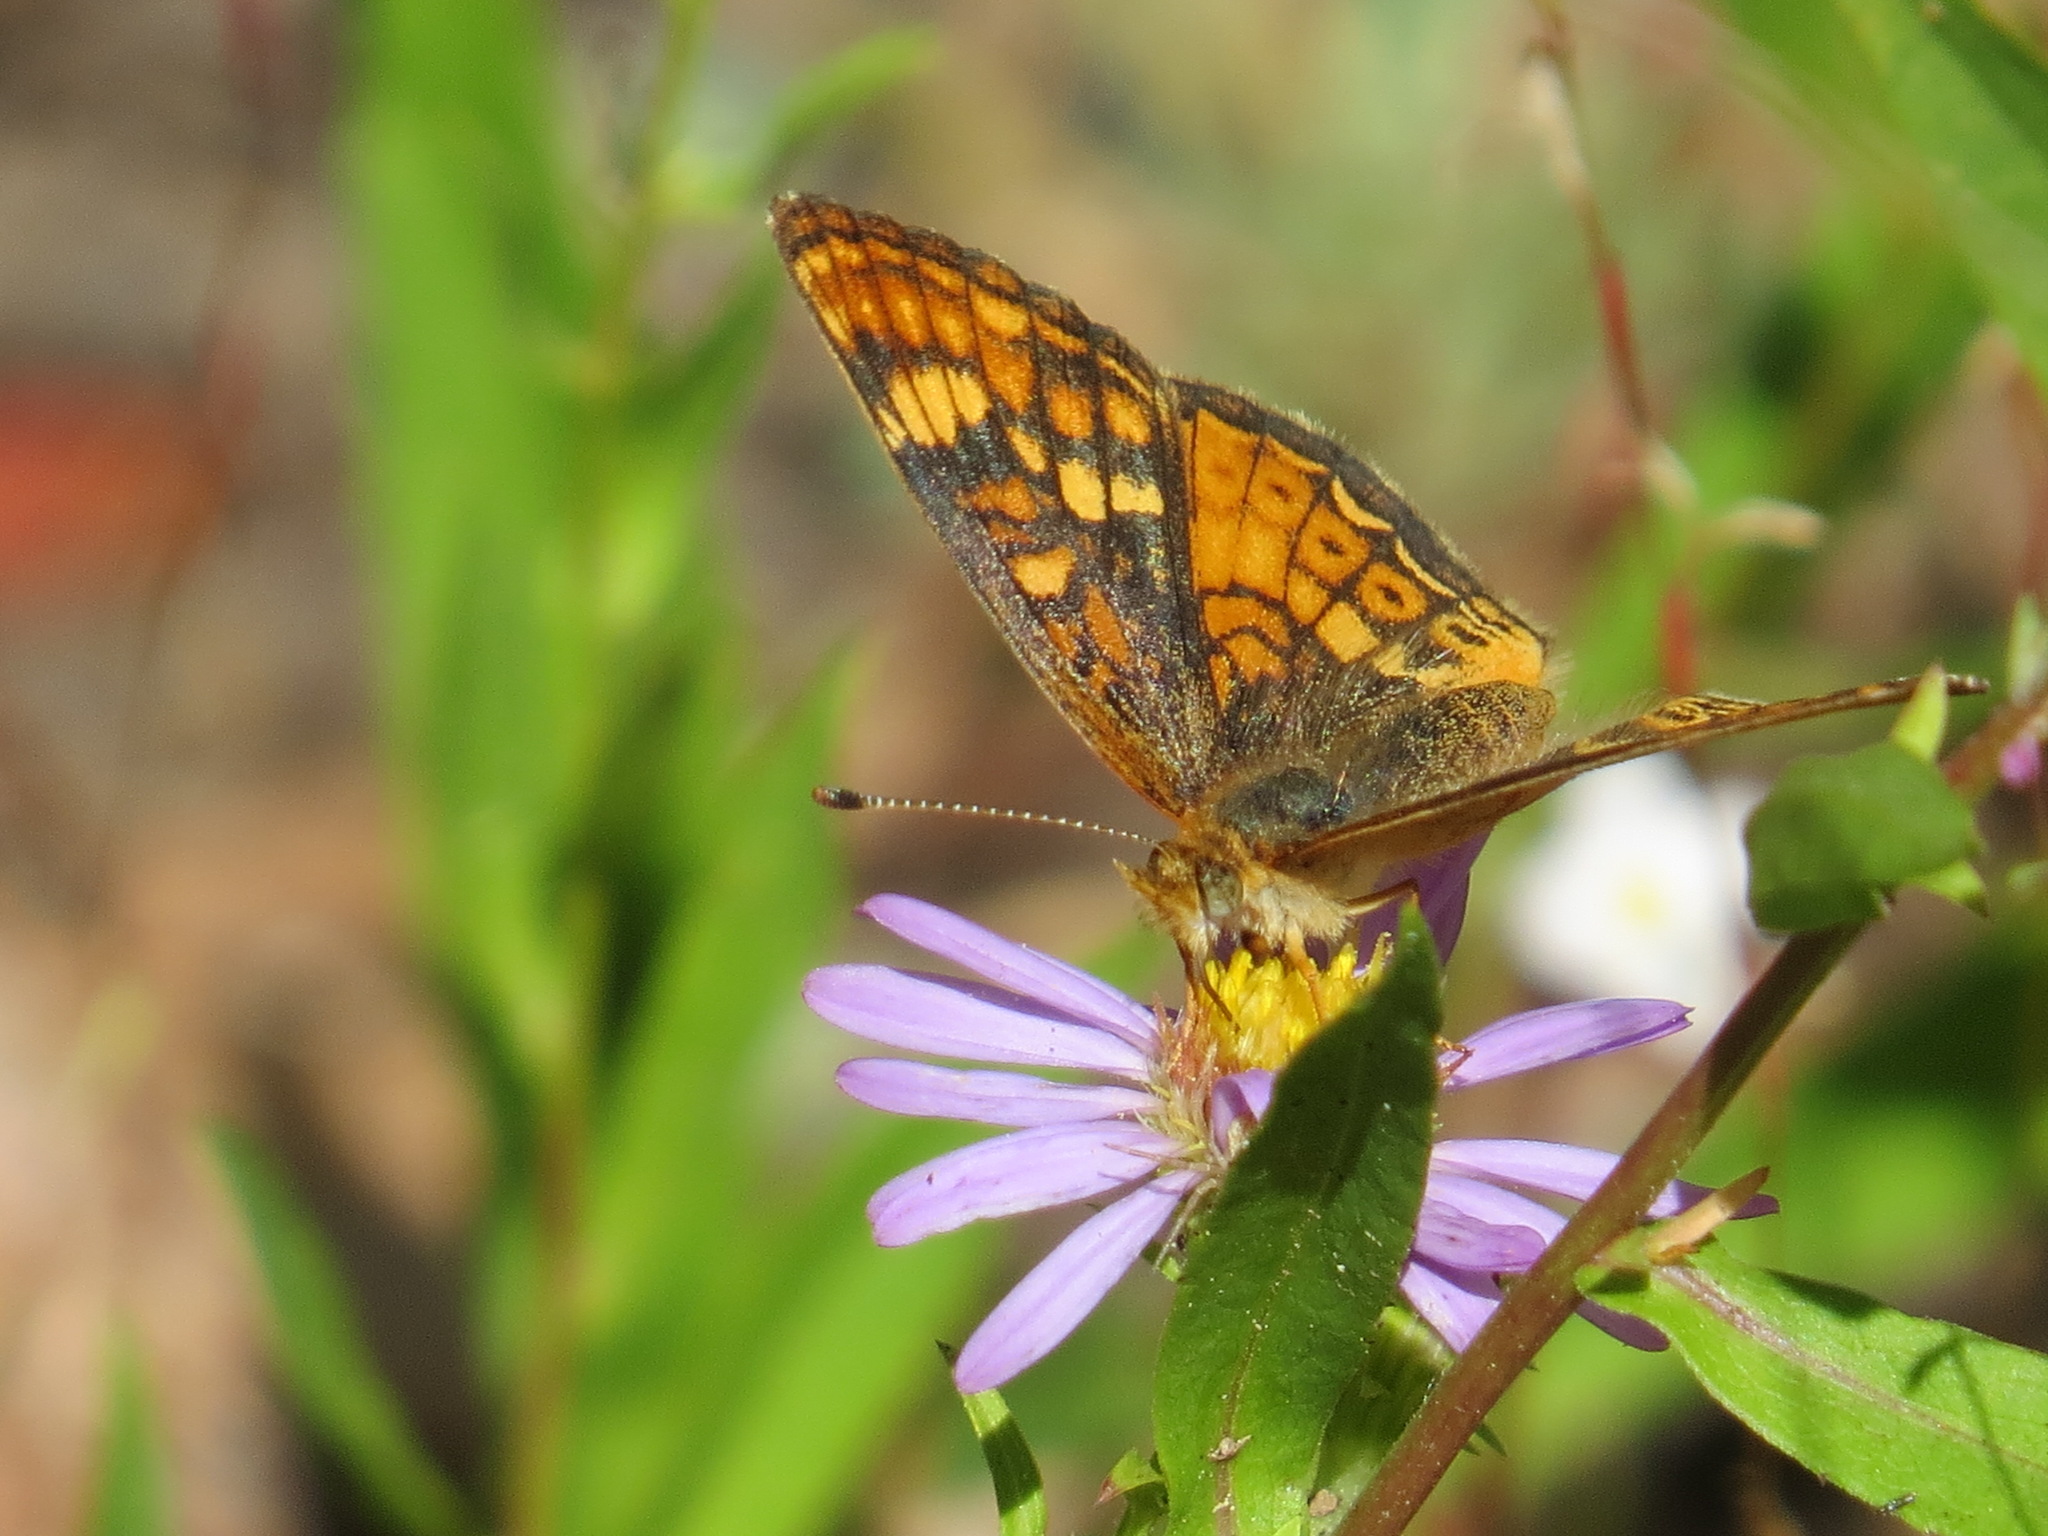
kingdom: Animalia
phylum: Arthropoda
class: Insecta
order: Lepidoptera
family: Nymphalidae
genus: Phyciodes
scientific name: Phyciodes tharos
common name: Pearl crescent
